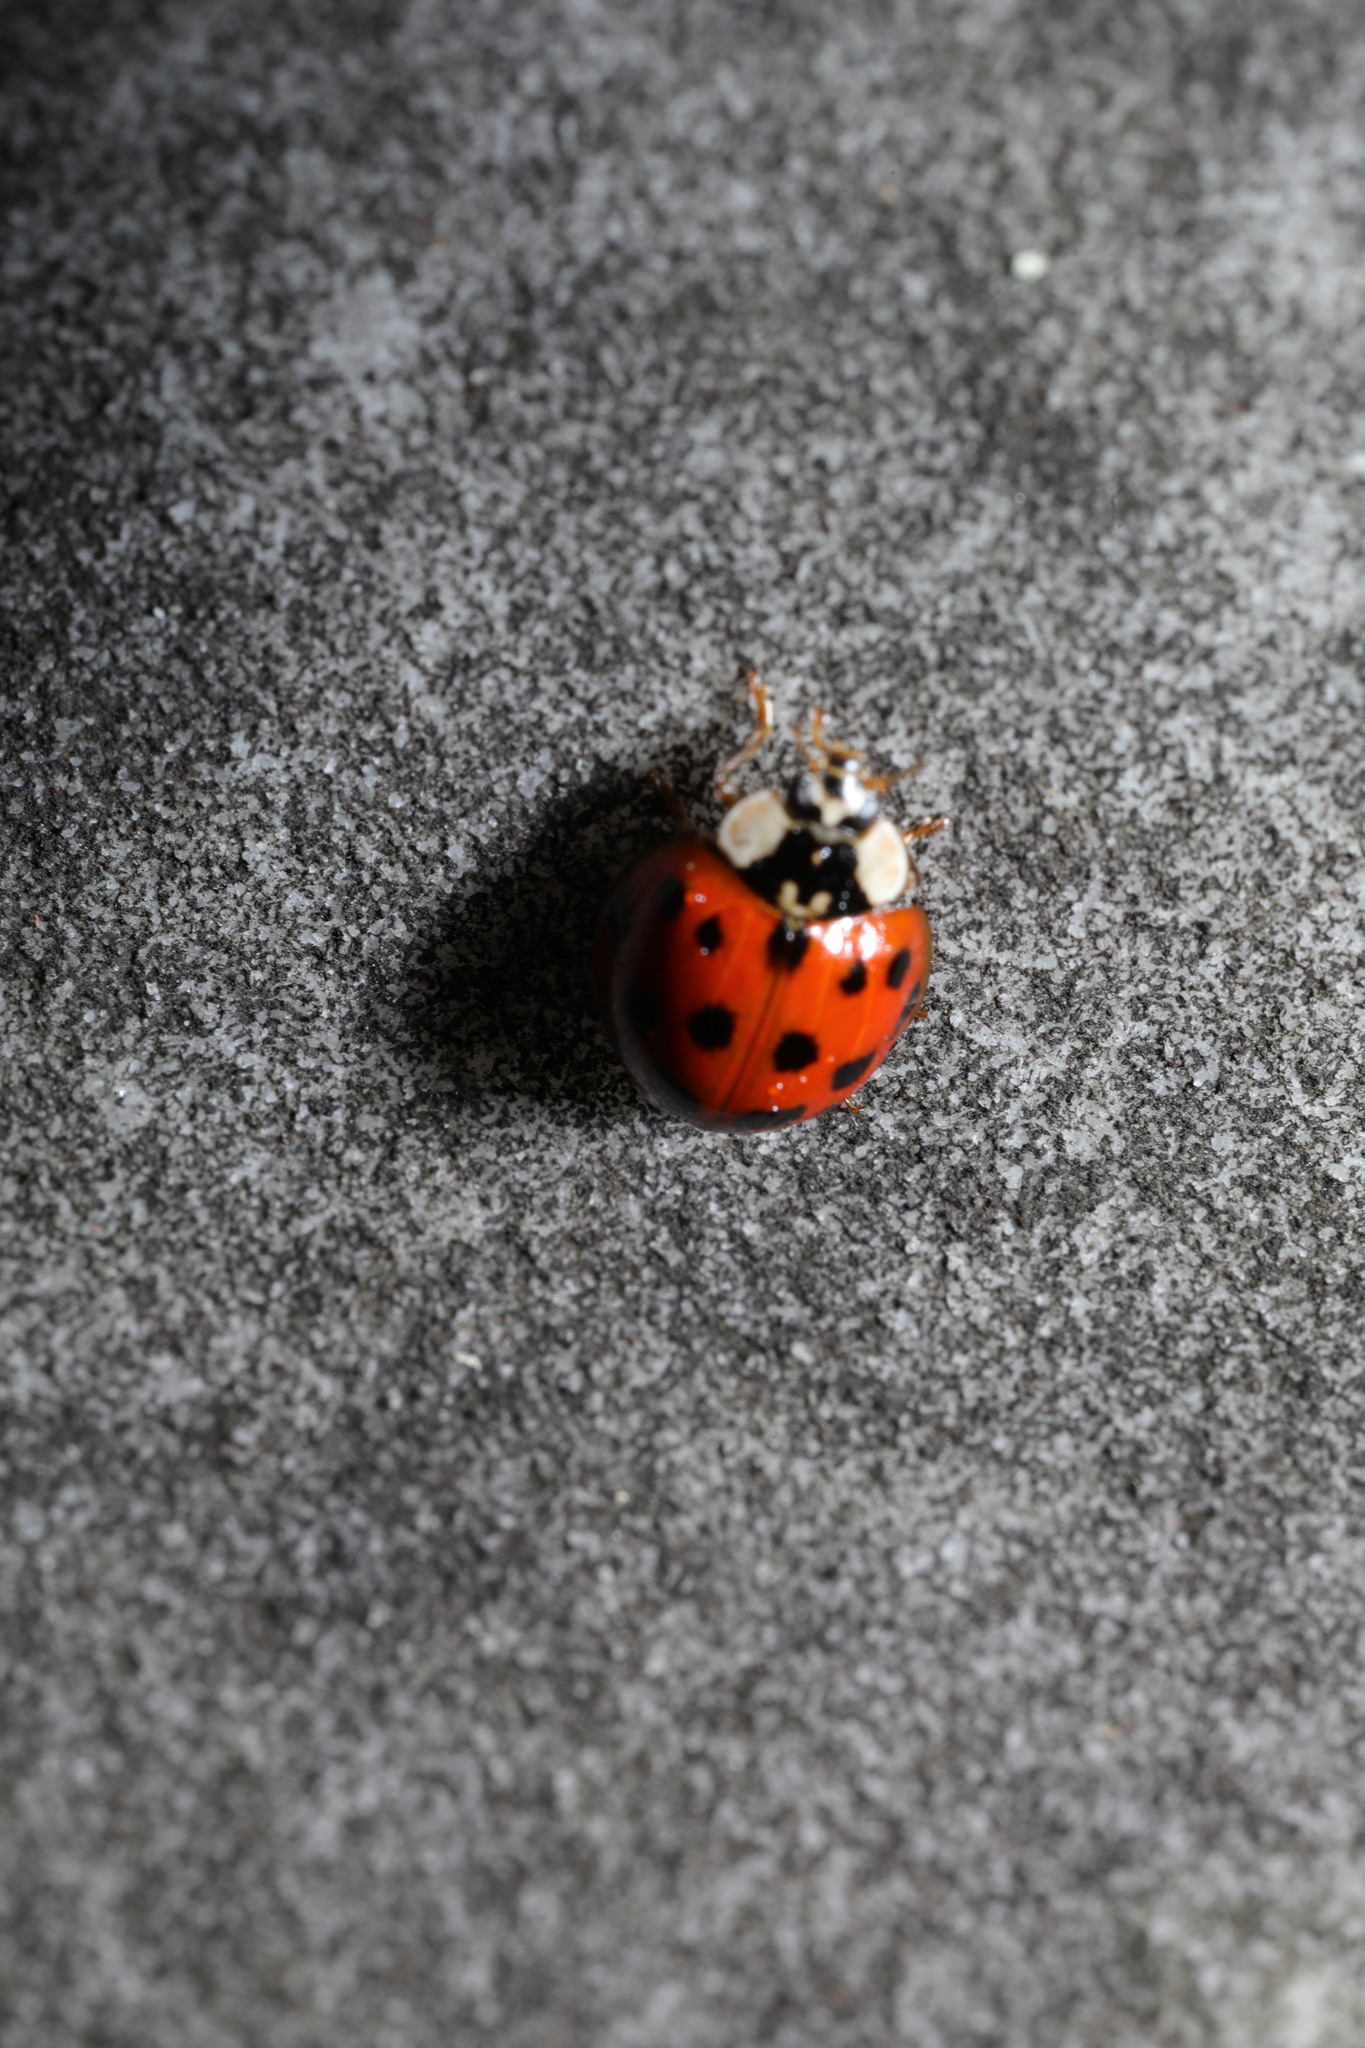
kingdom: Animalia
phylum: Arthropoda
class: Insecta
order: Coleoptera
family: Coccinellidae
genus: Harmonia
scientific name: Harmonia axyridis
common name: Harlequin ladybird
